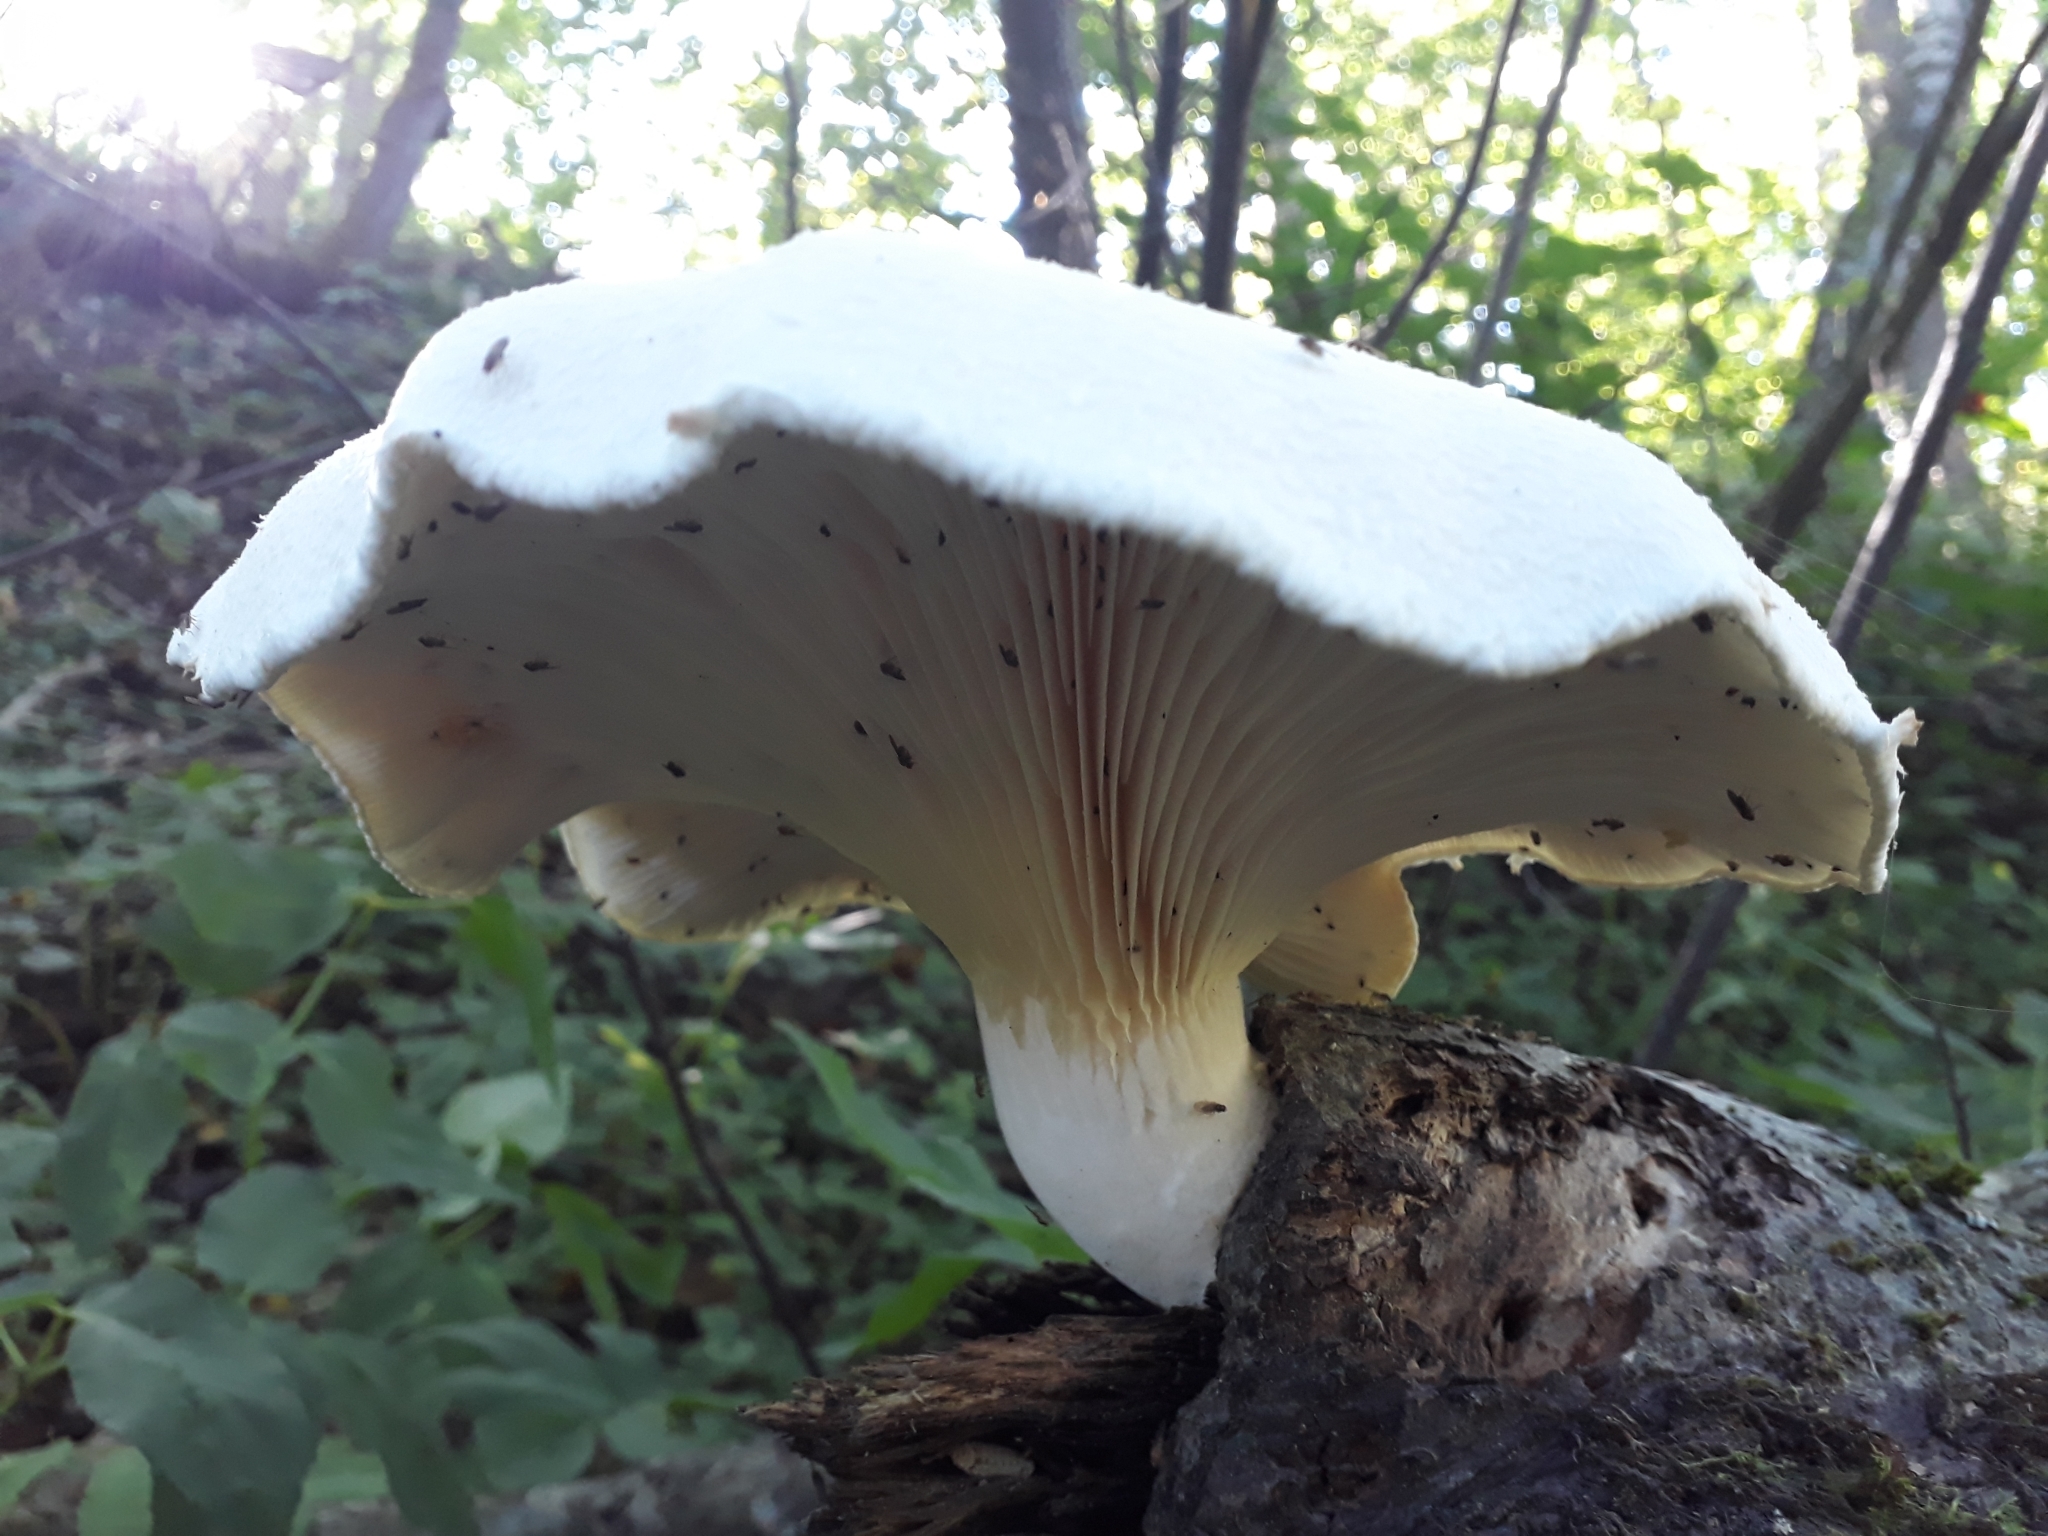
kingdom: Fungi
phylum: Basidiomycota
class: Agaricomycetes
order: Agaricales
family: Pleurotaceae
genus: Pleurotus
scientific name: Pleurotus dryinus
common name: Veiled oyster
